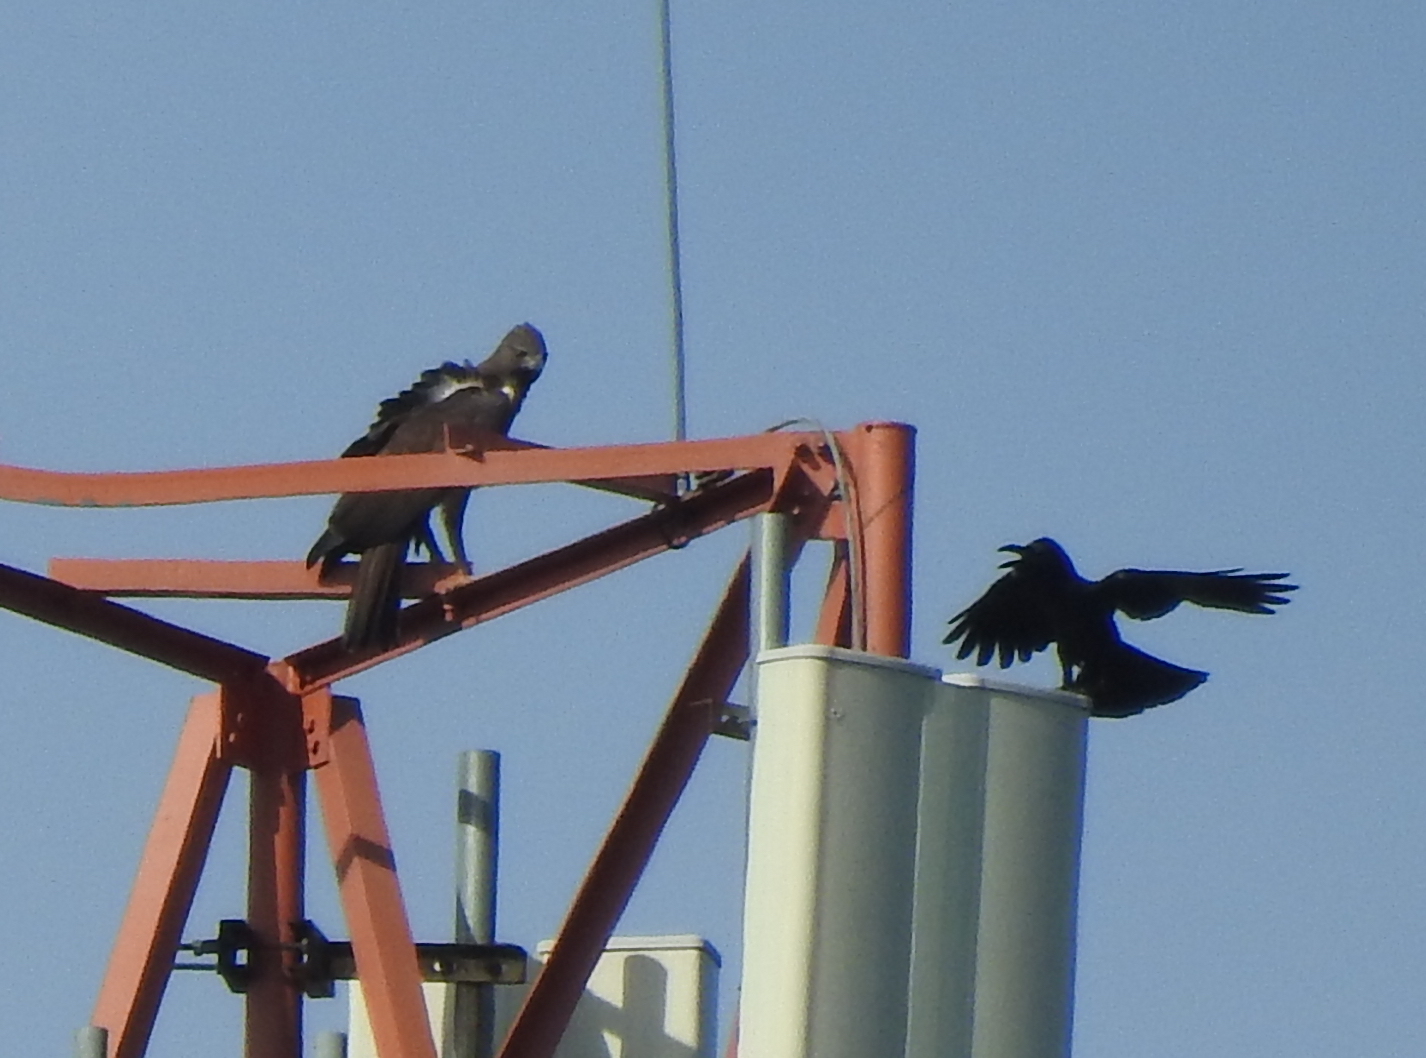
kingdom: Animalia
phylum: Chordata
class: Aves
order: Accipitriformes
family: Accipitridae
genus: Nisaetus
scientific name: Nisaetus cirrhatus
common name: Changeable hawk-eagle
